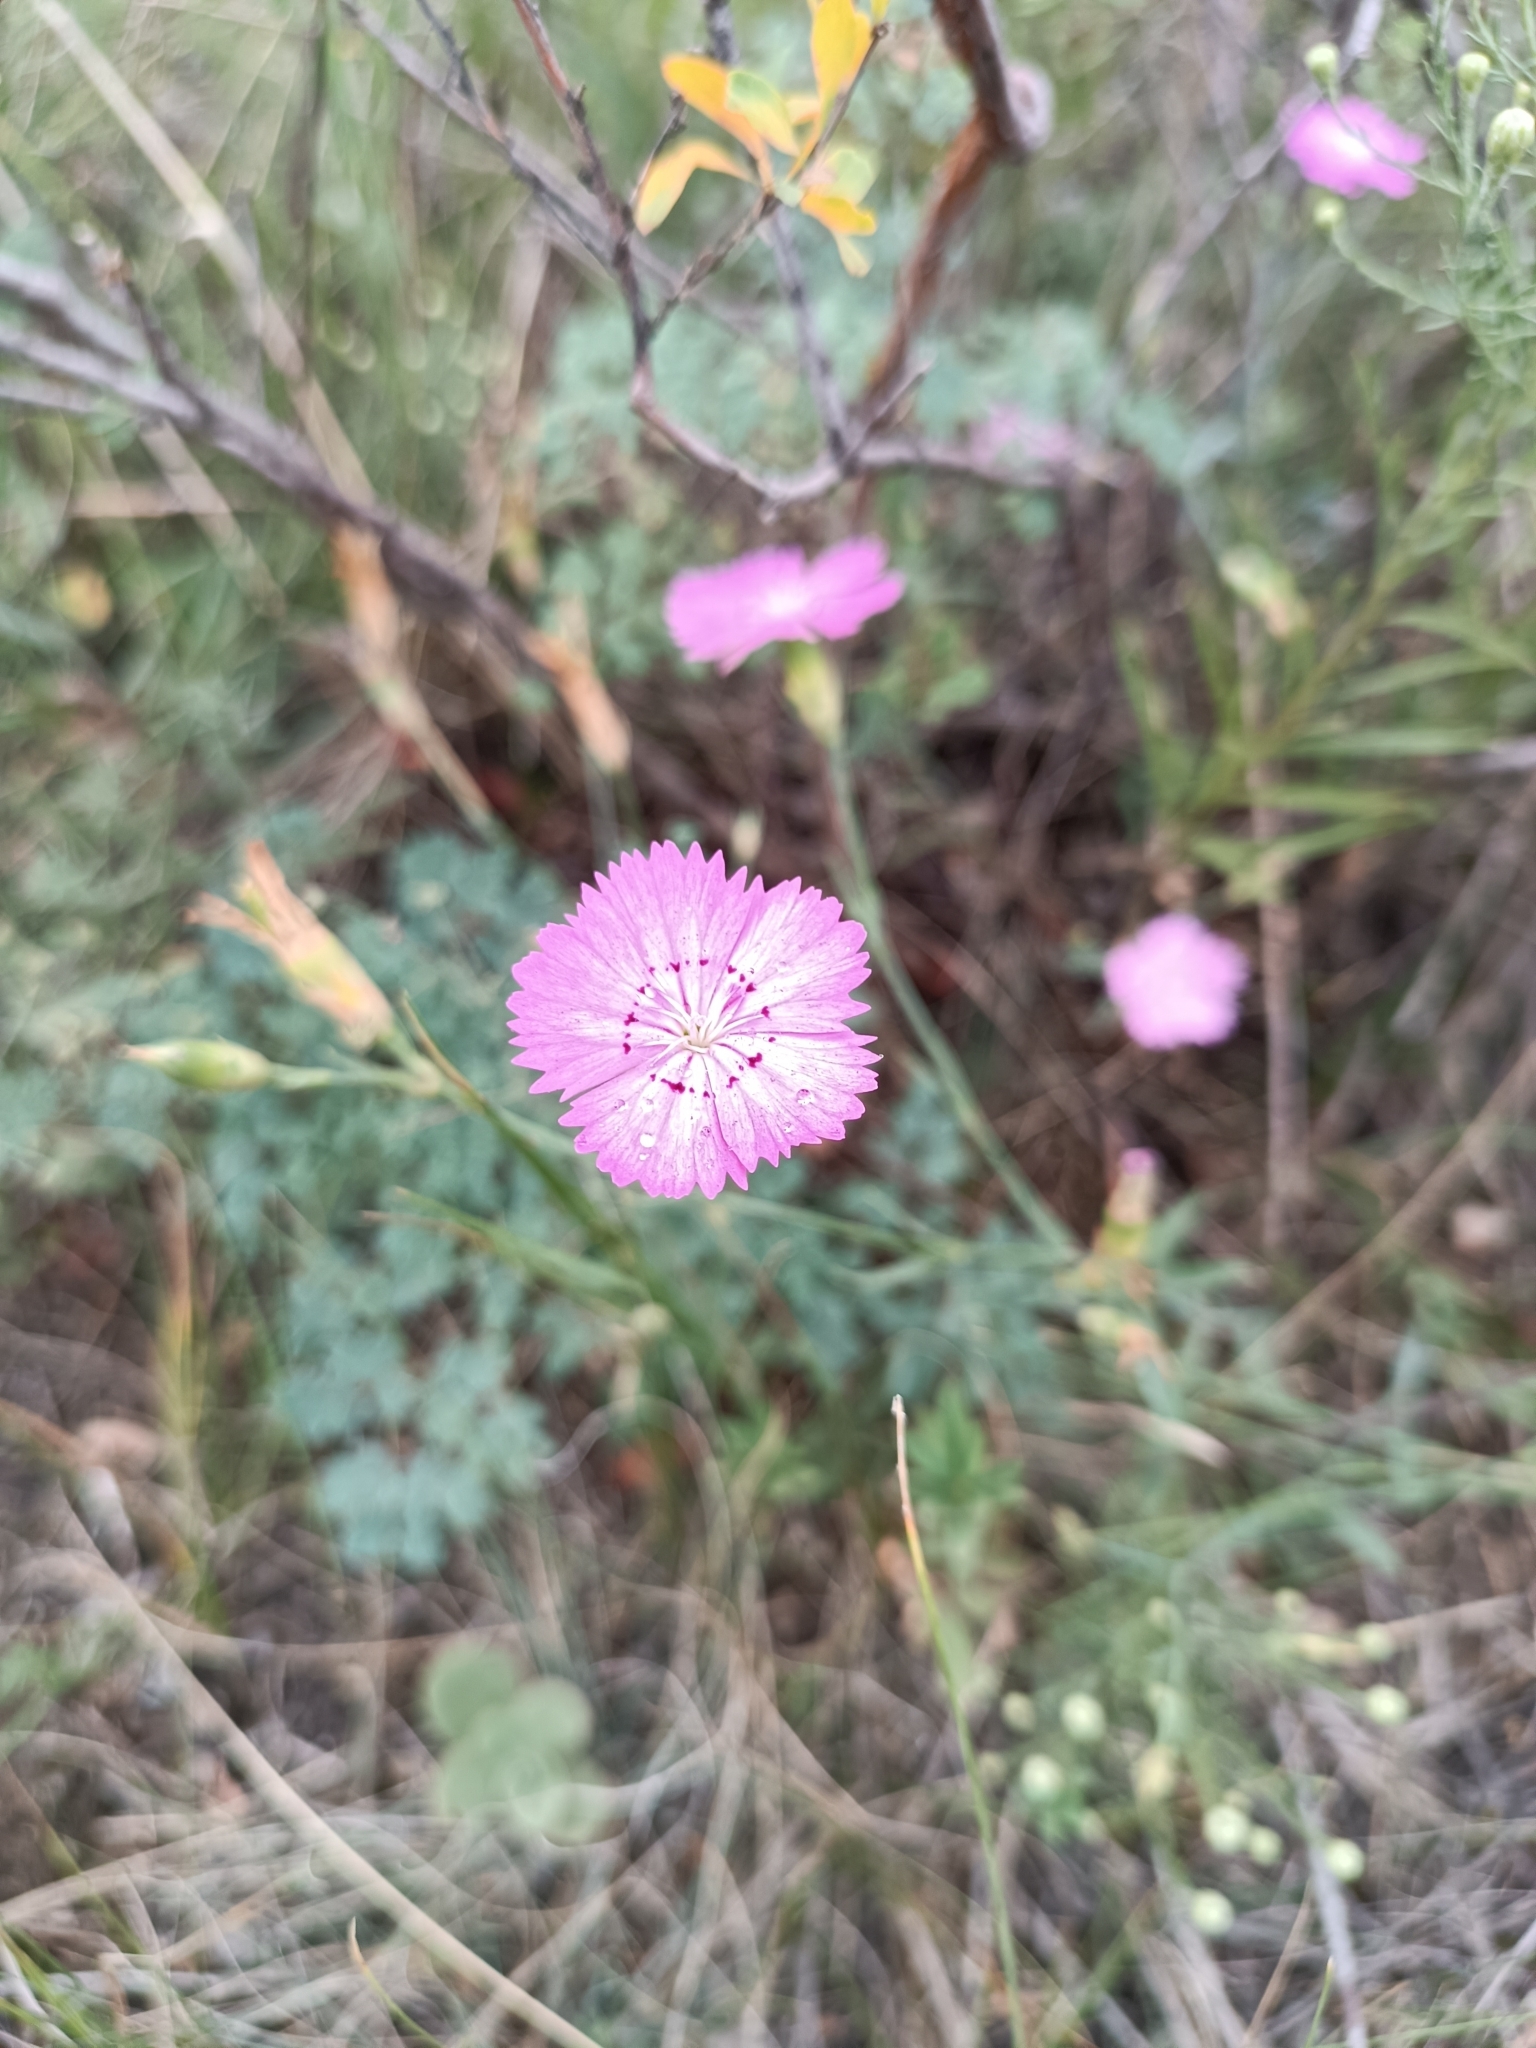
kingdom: Plantae
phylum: Tracheophyta
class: Magnoliopsida
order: Caryophyllales
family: Caryophyllaceae
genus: Dianthus
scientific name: Dianthus chinensis
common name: Rainbow pink
